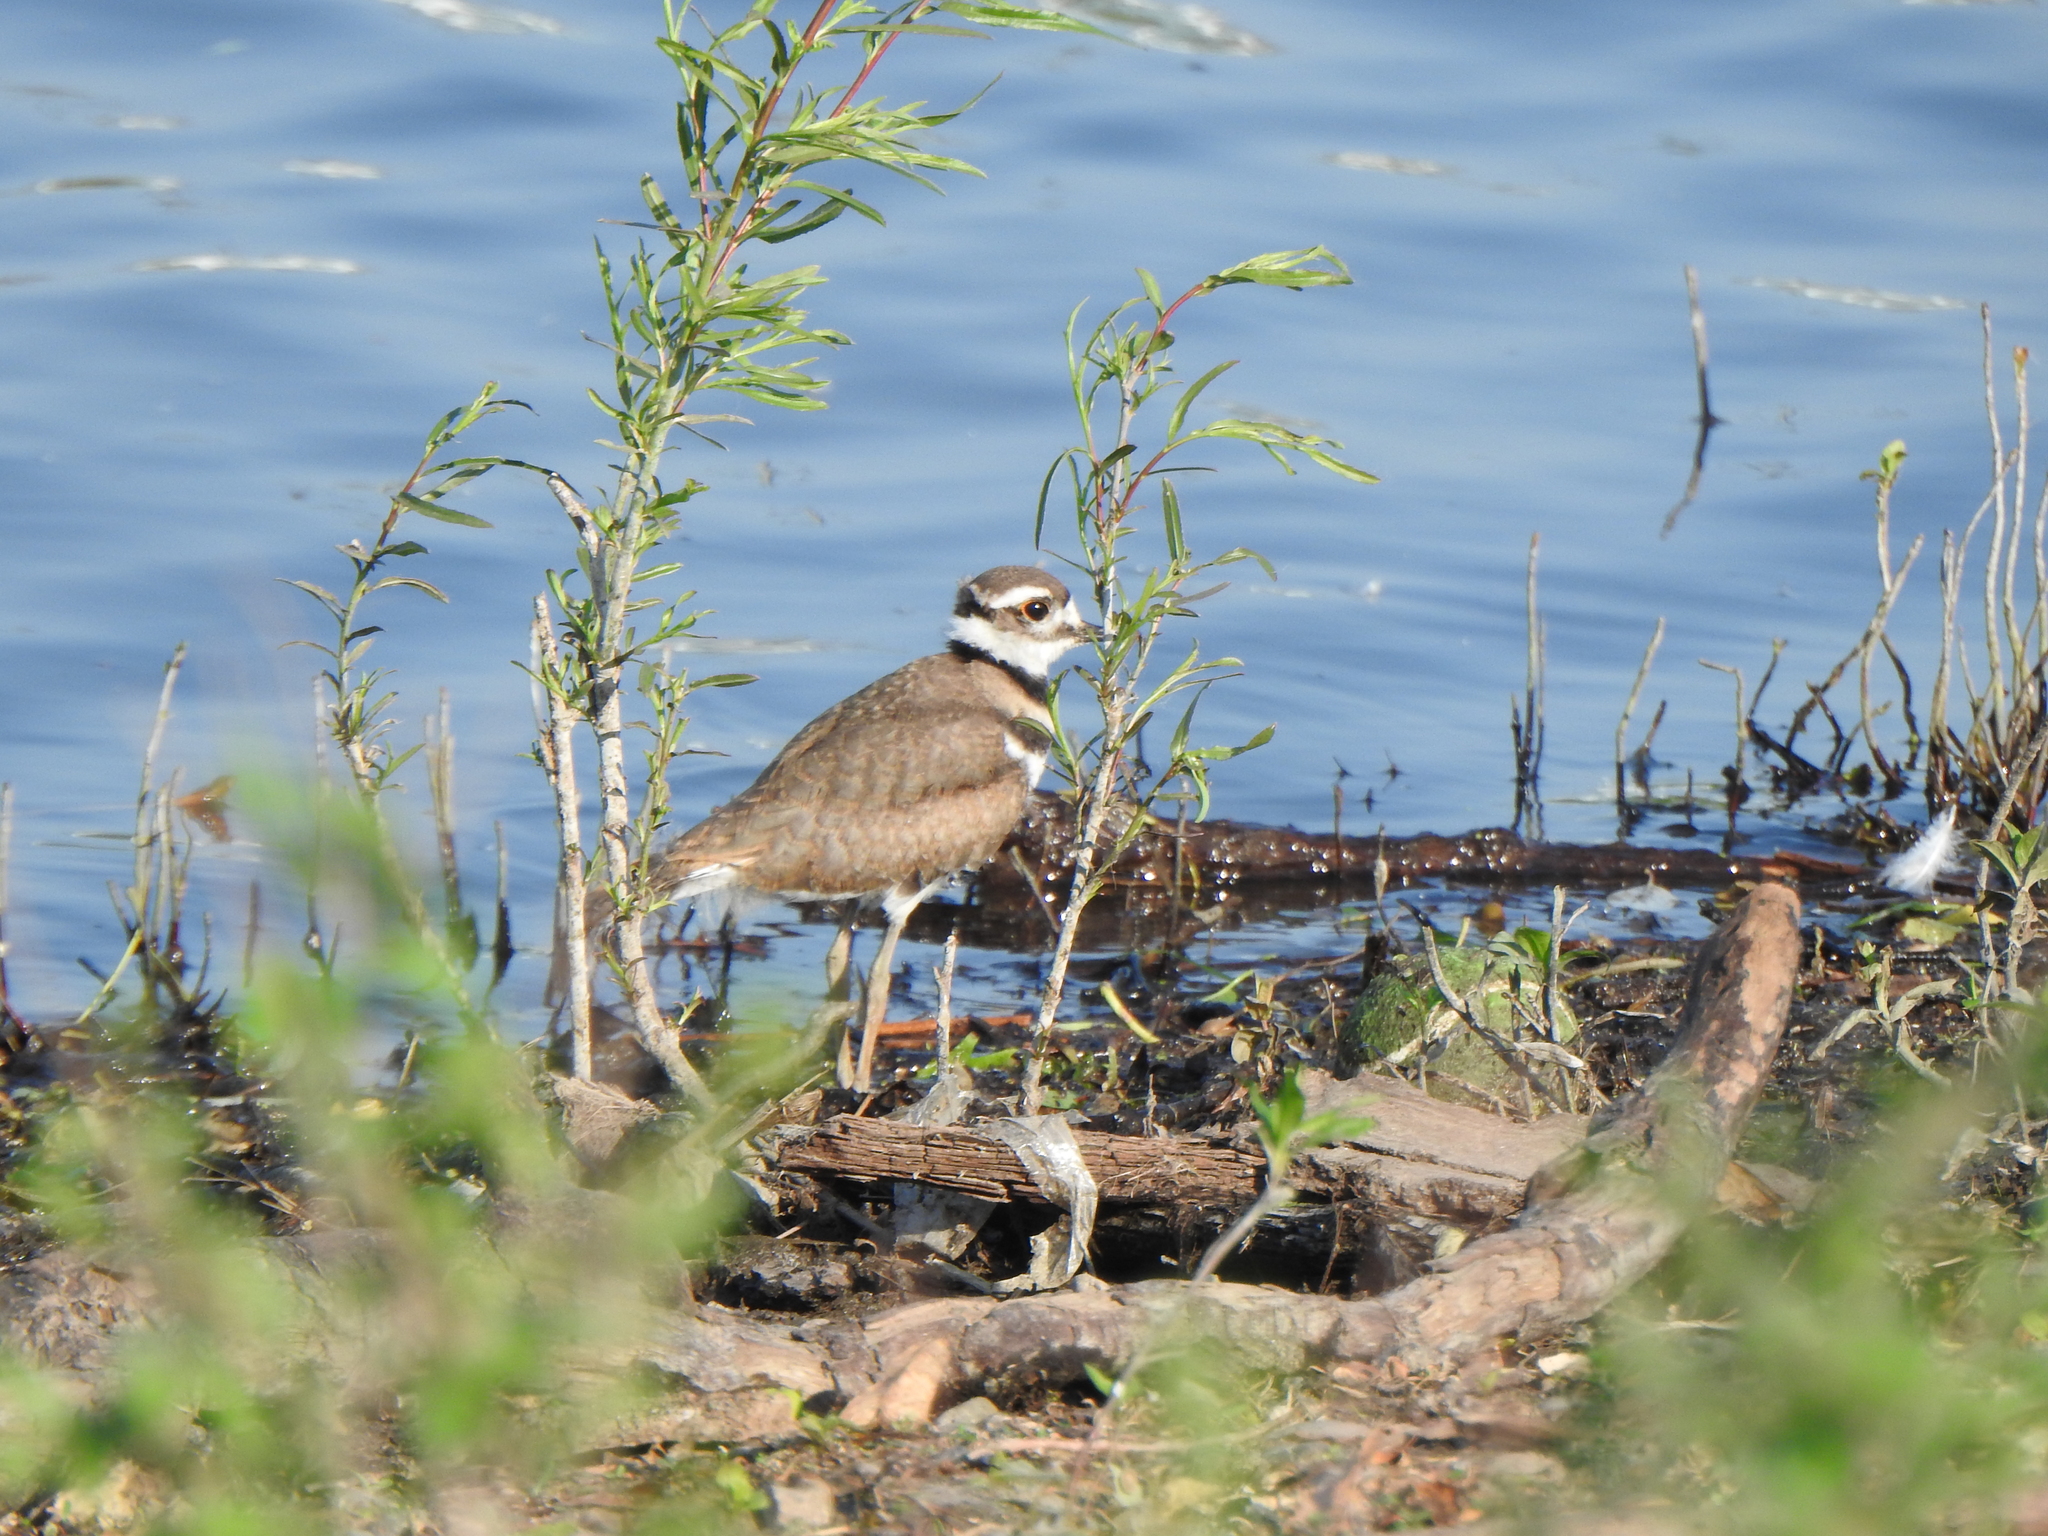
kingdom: Animalia
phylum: Chordata
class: Aves
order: Charadriiformes
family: Charadriidae
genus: Charadrius
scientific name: Charadrius vociferus
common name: Killdeer
